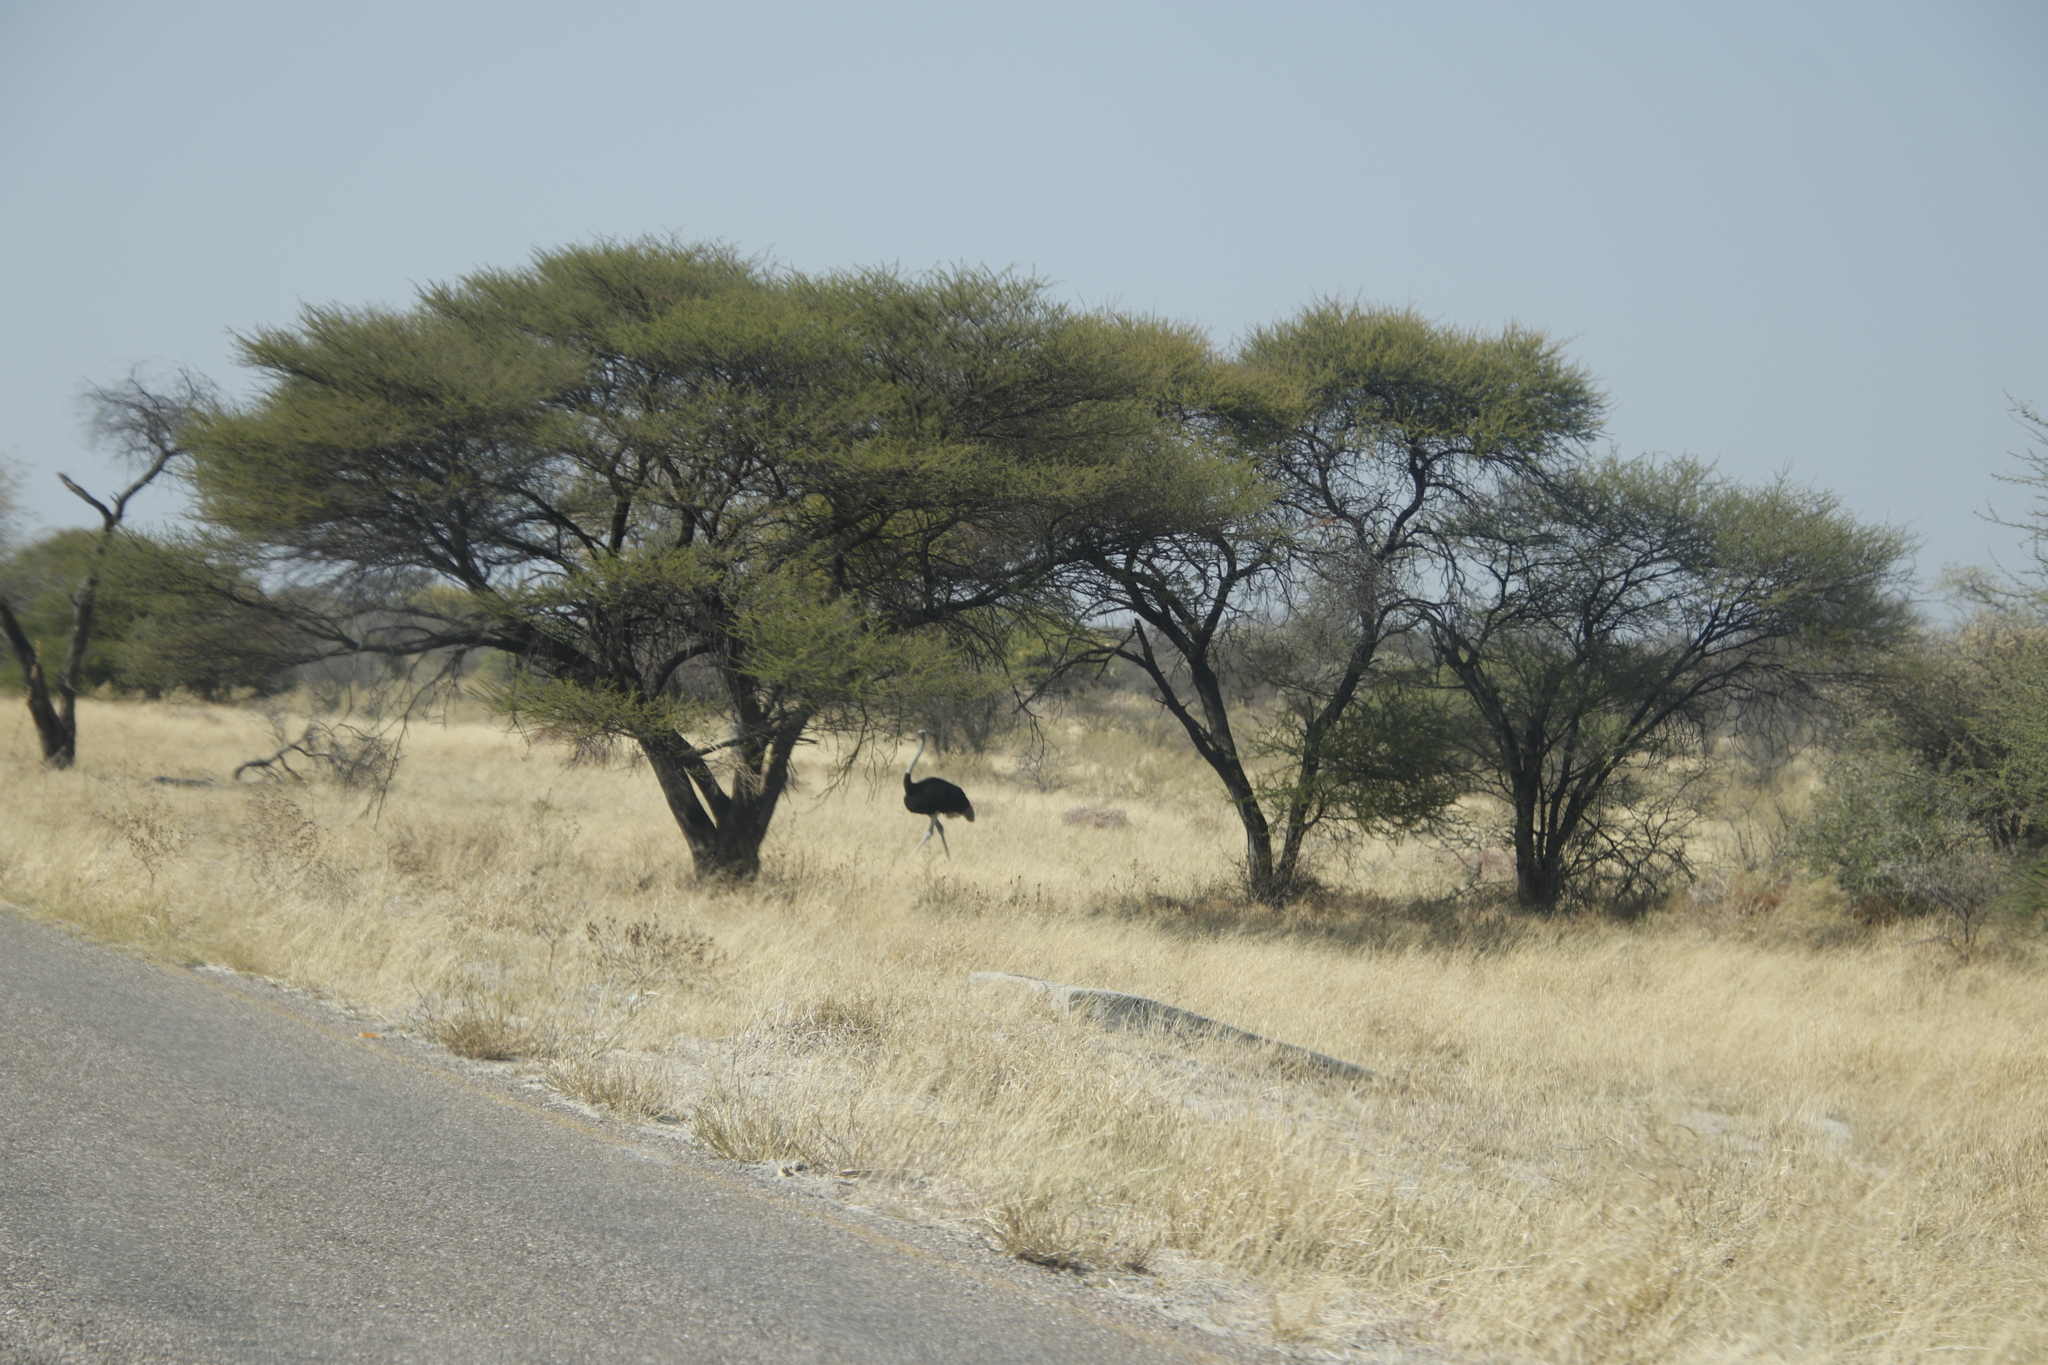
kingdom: Animalia
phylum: Chordata
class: Aves
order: Struthioniformes
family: Struthionidae
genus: Struthio
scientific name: Struthio camelus
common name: Common ostrich
